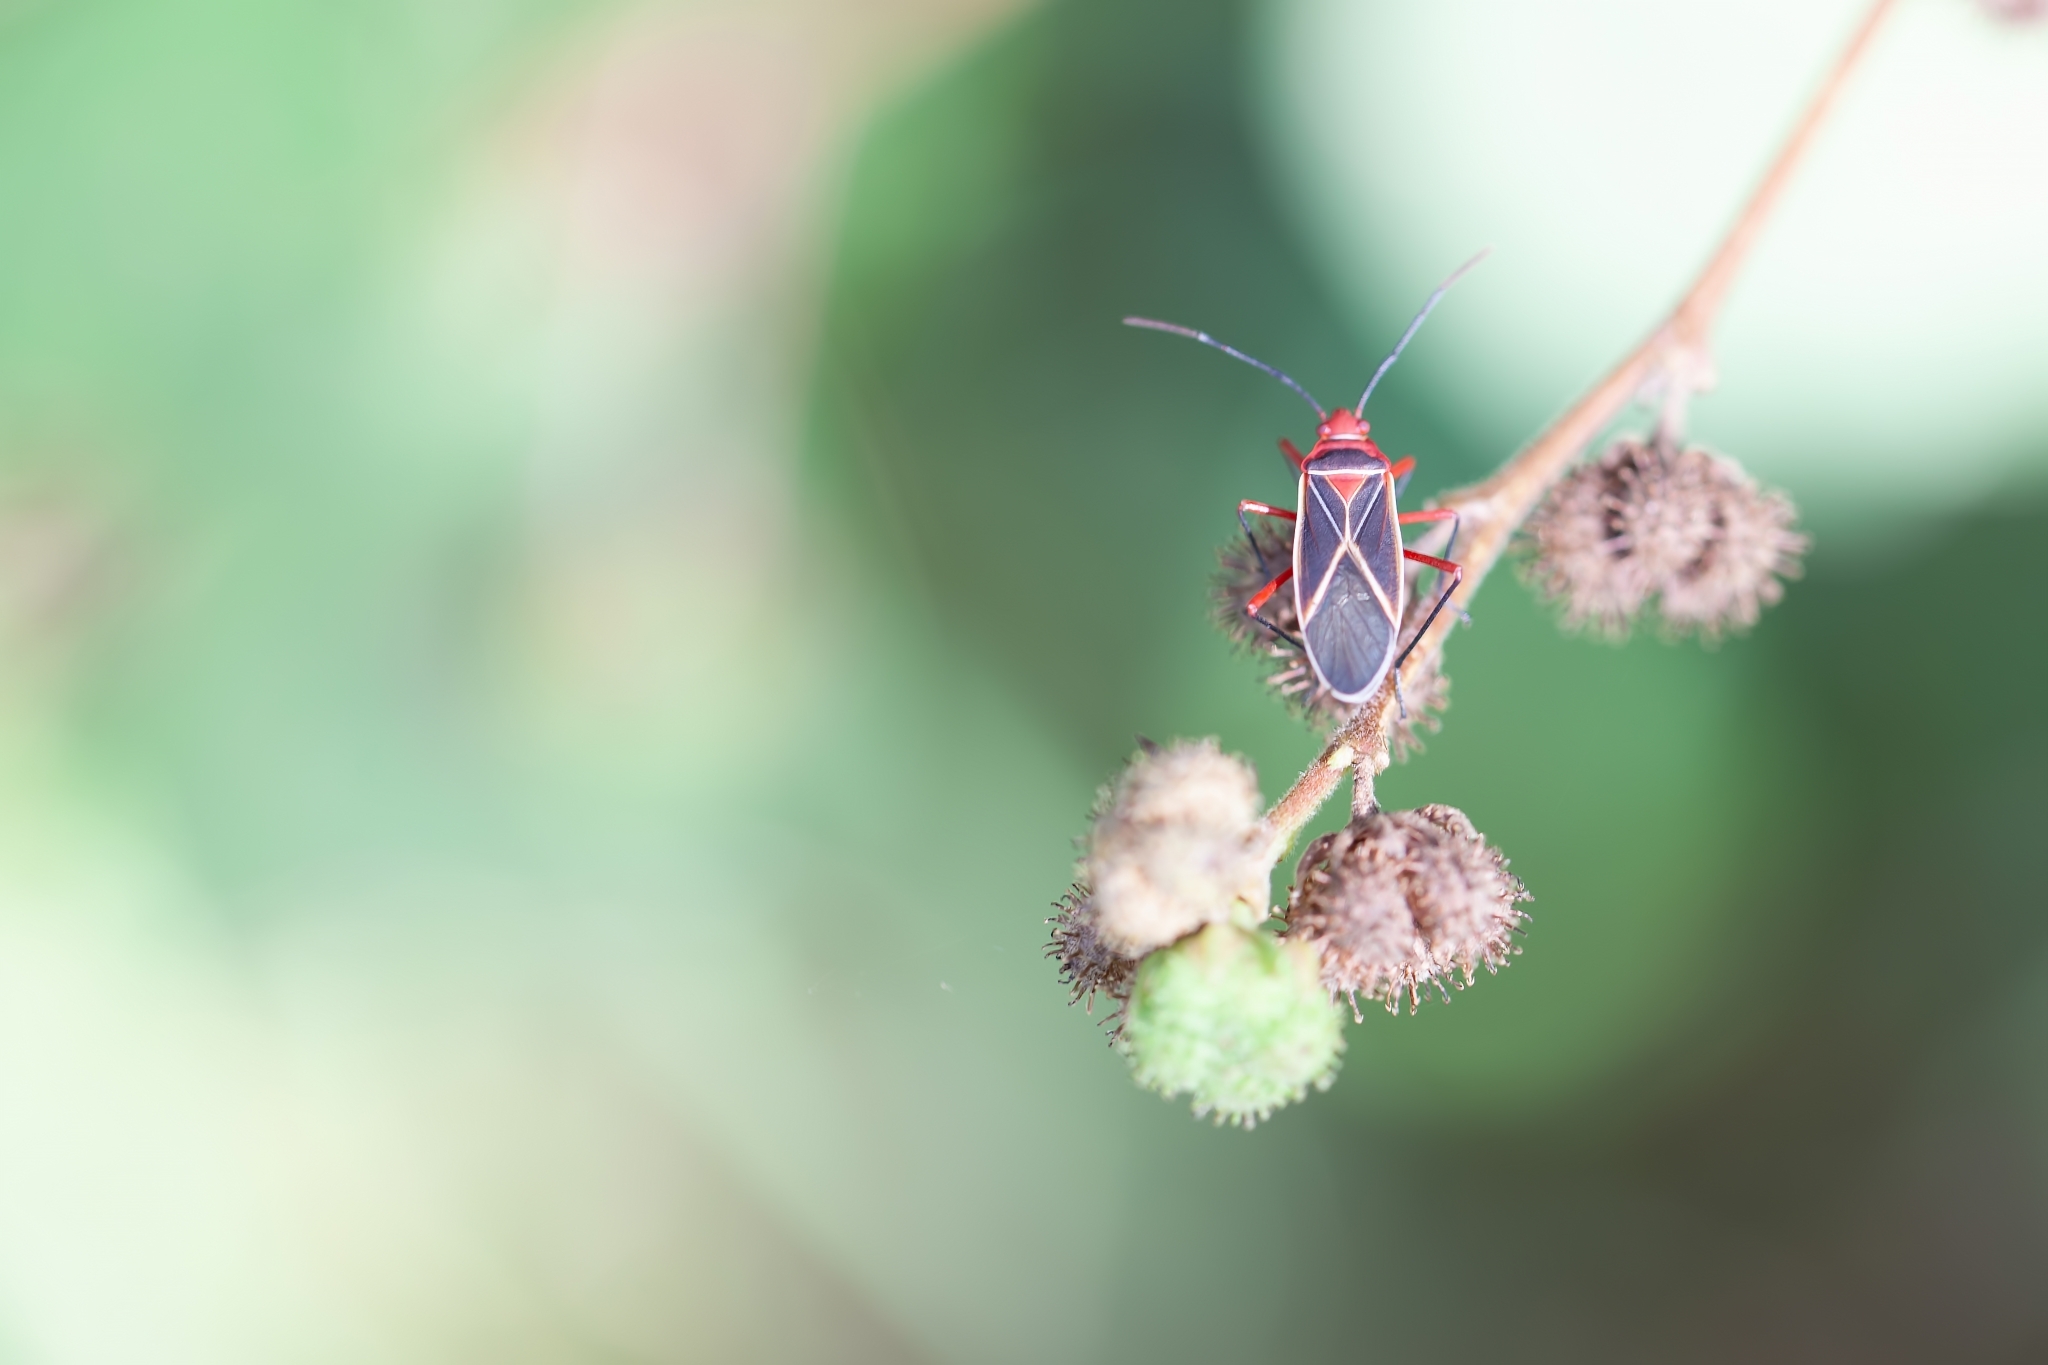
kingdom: Animalia
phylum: Arthropoda
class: Insecta
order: Hemiptera
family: Pyrrhocoridae
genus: Dysdercus
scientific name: Dysdercus suturellus
